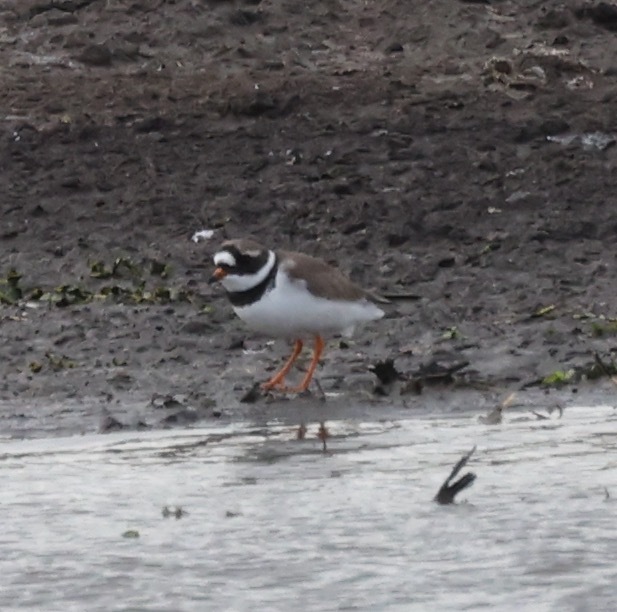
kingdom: Animalia
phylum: Chordata
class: Aves
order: Charadriiformes
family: Charadriidae
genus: Charadrius
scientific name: Charadrius hiaticula
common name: Common ringed plover
